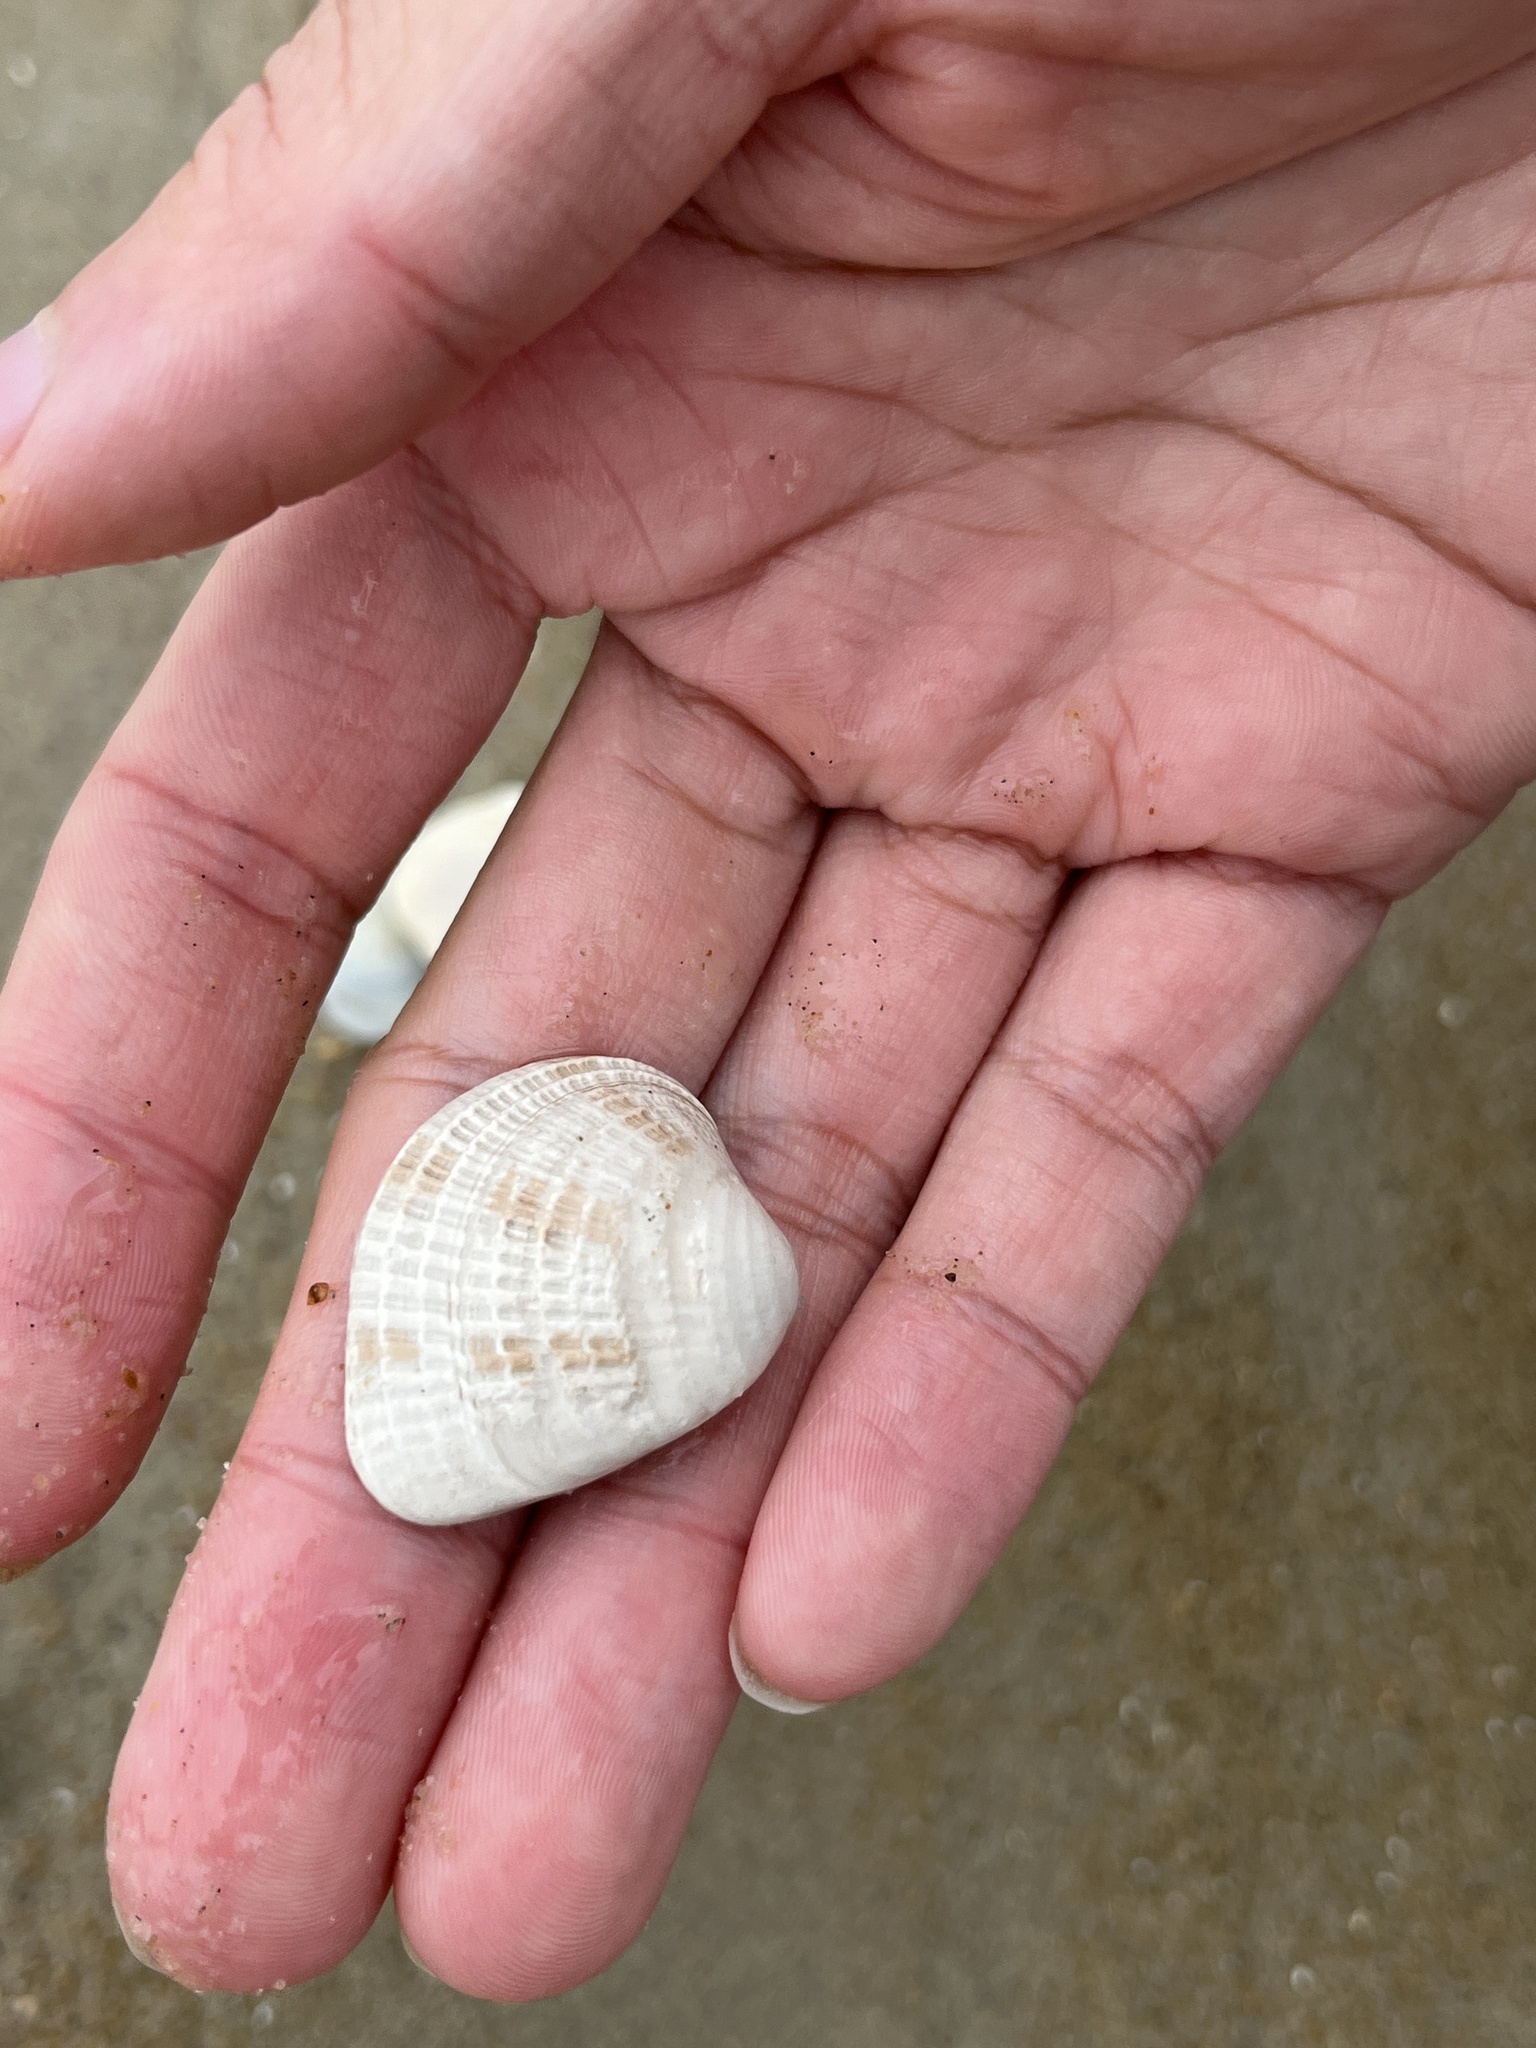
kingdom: Animalia
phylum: Mollusca
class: Bivalvia
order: Venerida
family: Veneridae
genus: Chione
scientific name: Chione elevata
